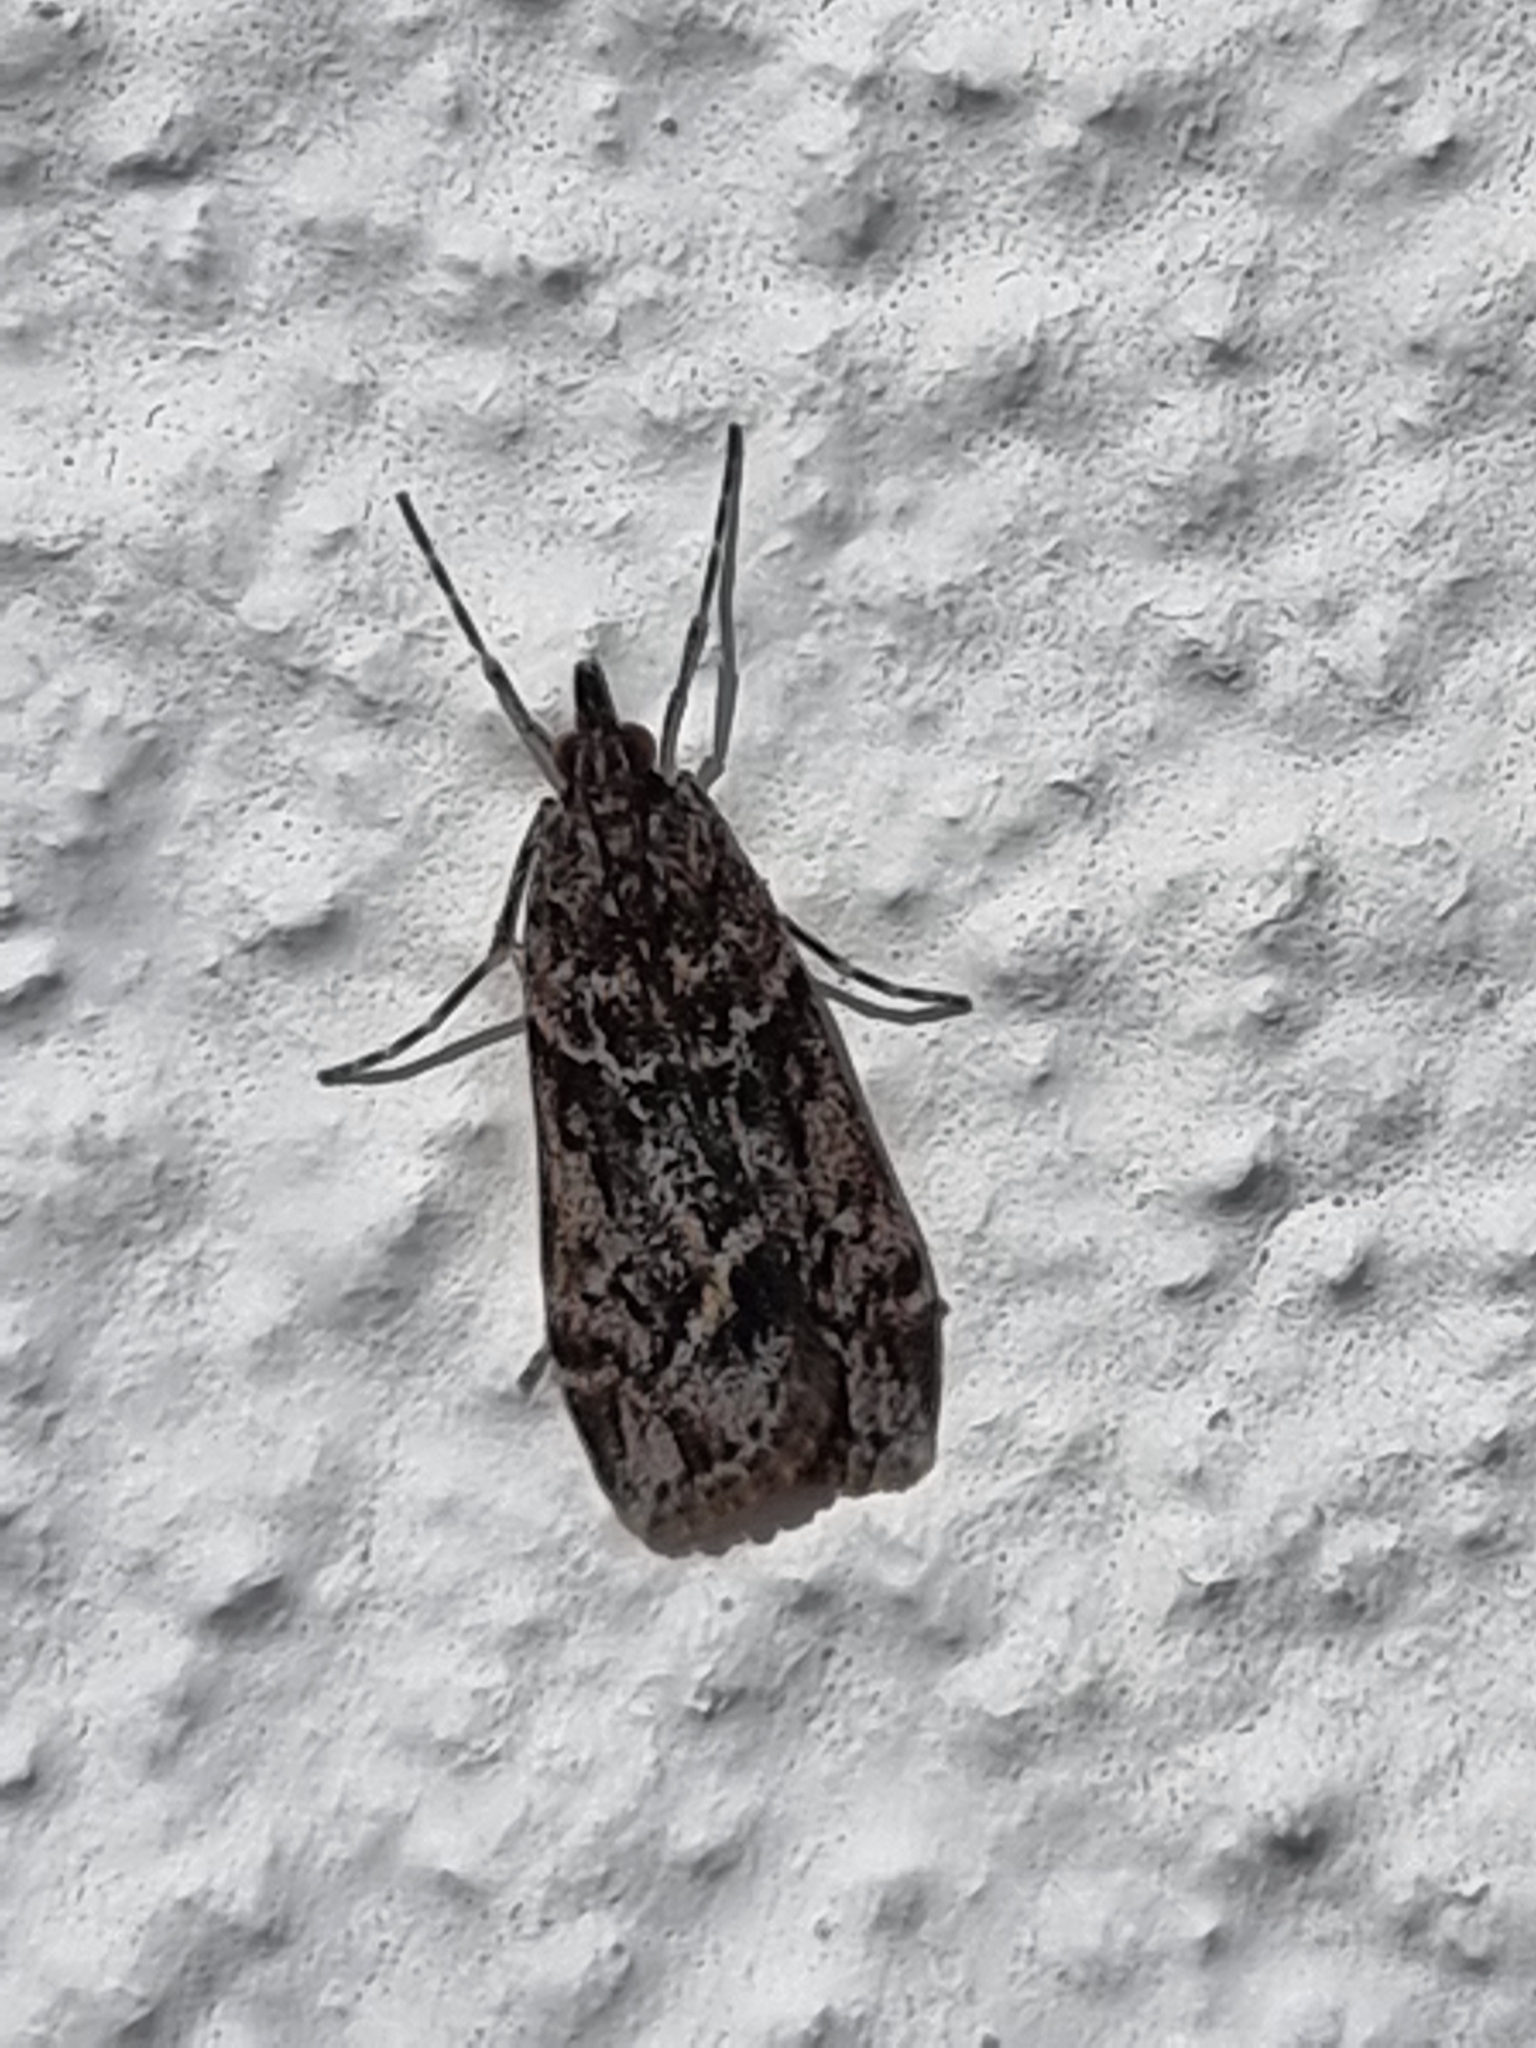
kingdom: Animalia
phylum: Arthropoda
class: Insecta
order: Lepidoptera
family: Crambidae
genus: Eudonia
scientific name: Eudonia submarginalis
